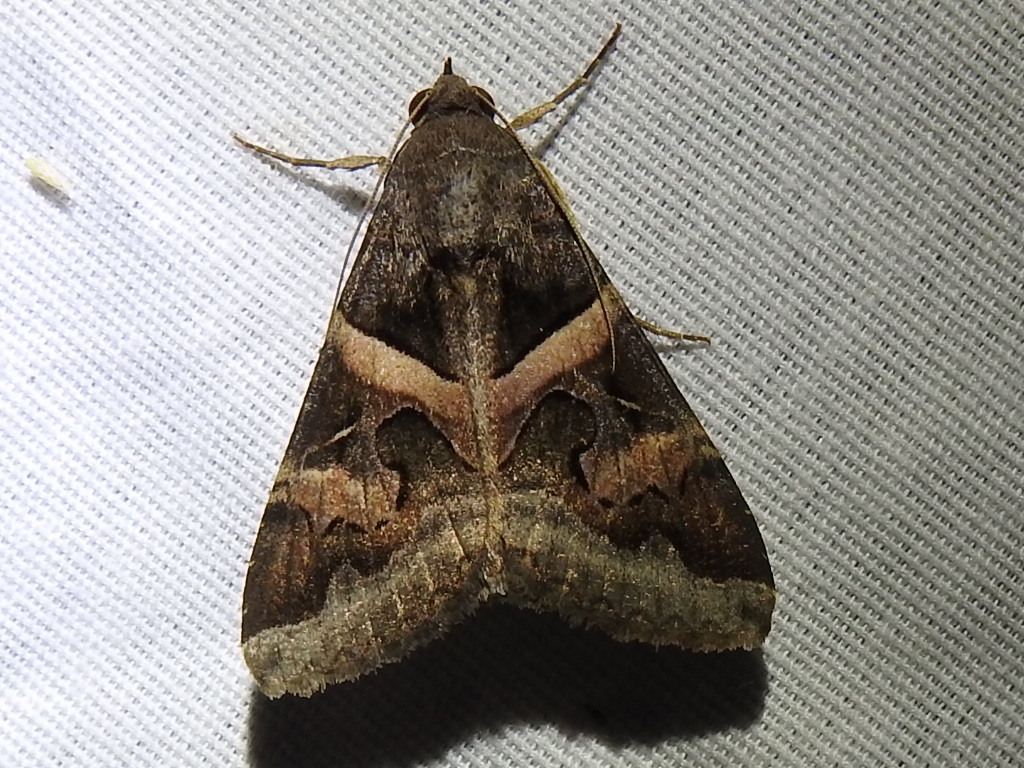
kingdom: Animalia
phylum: Arthropoda
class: Insecta
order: Lepidoptera
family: Erebidae
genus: Melipotis
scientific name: Melipotis indomita
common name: Moth
